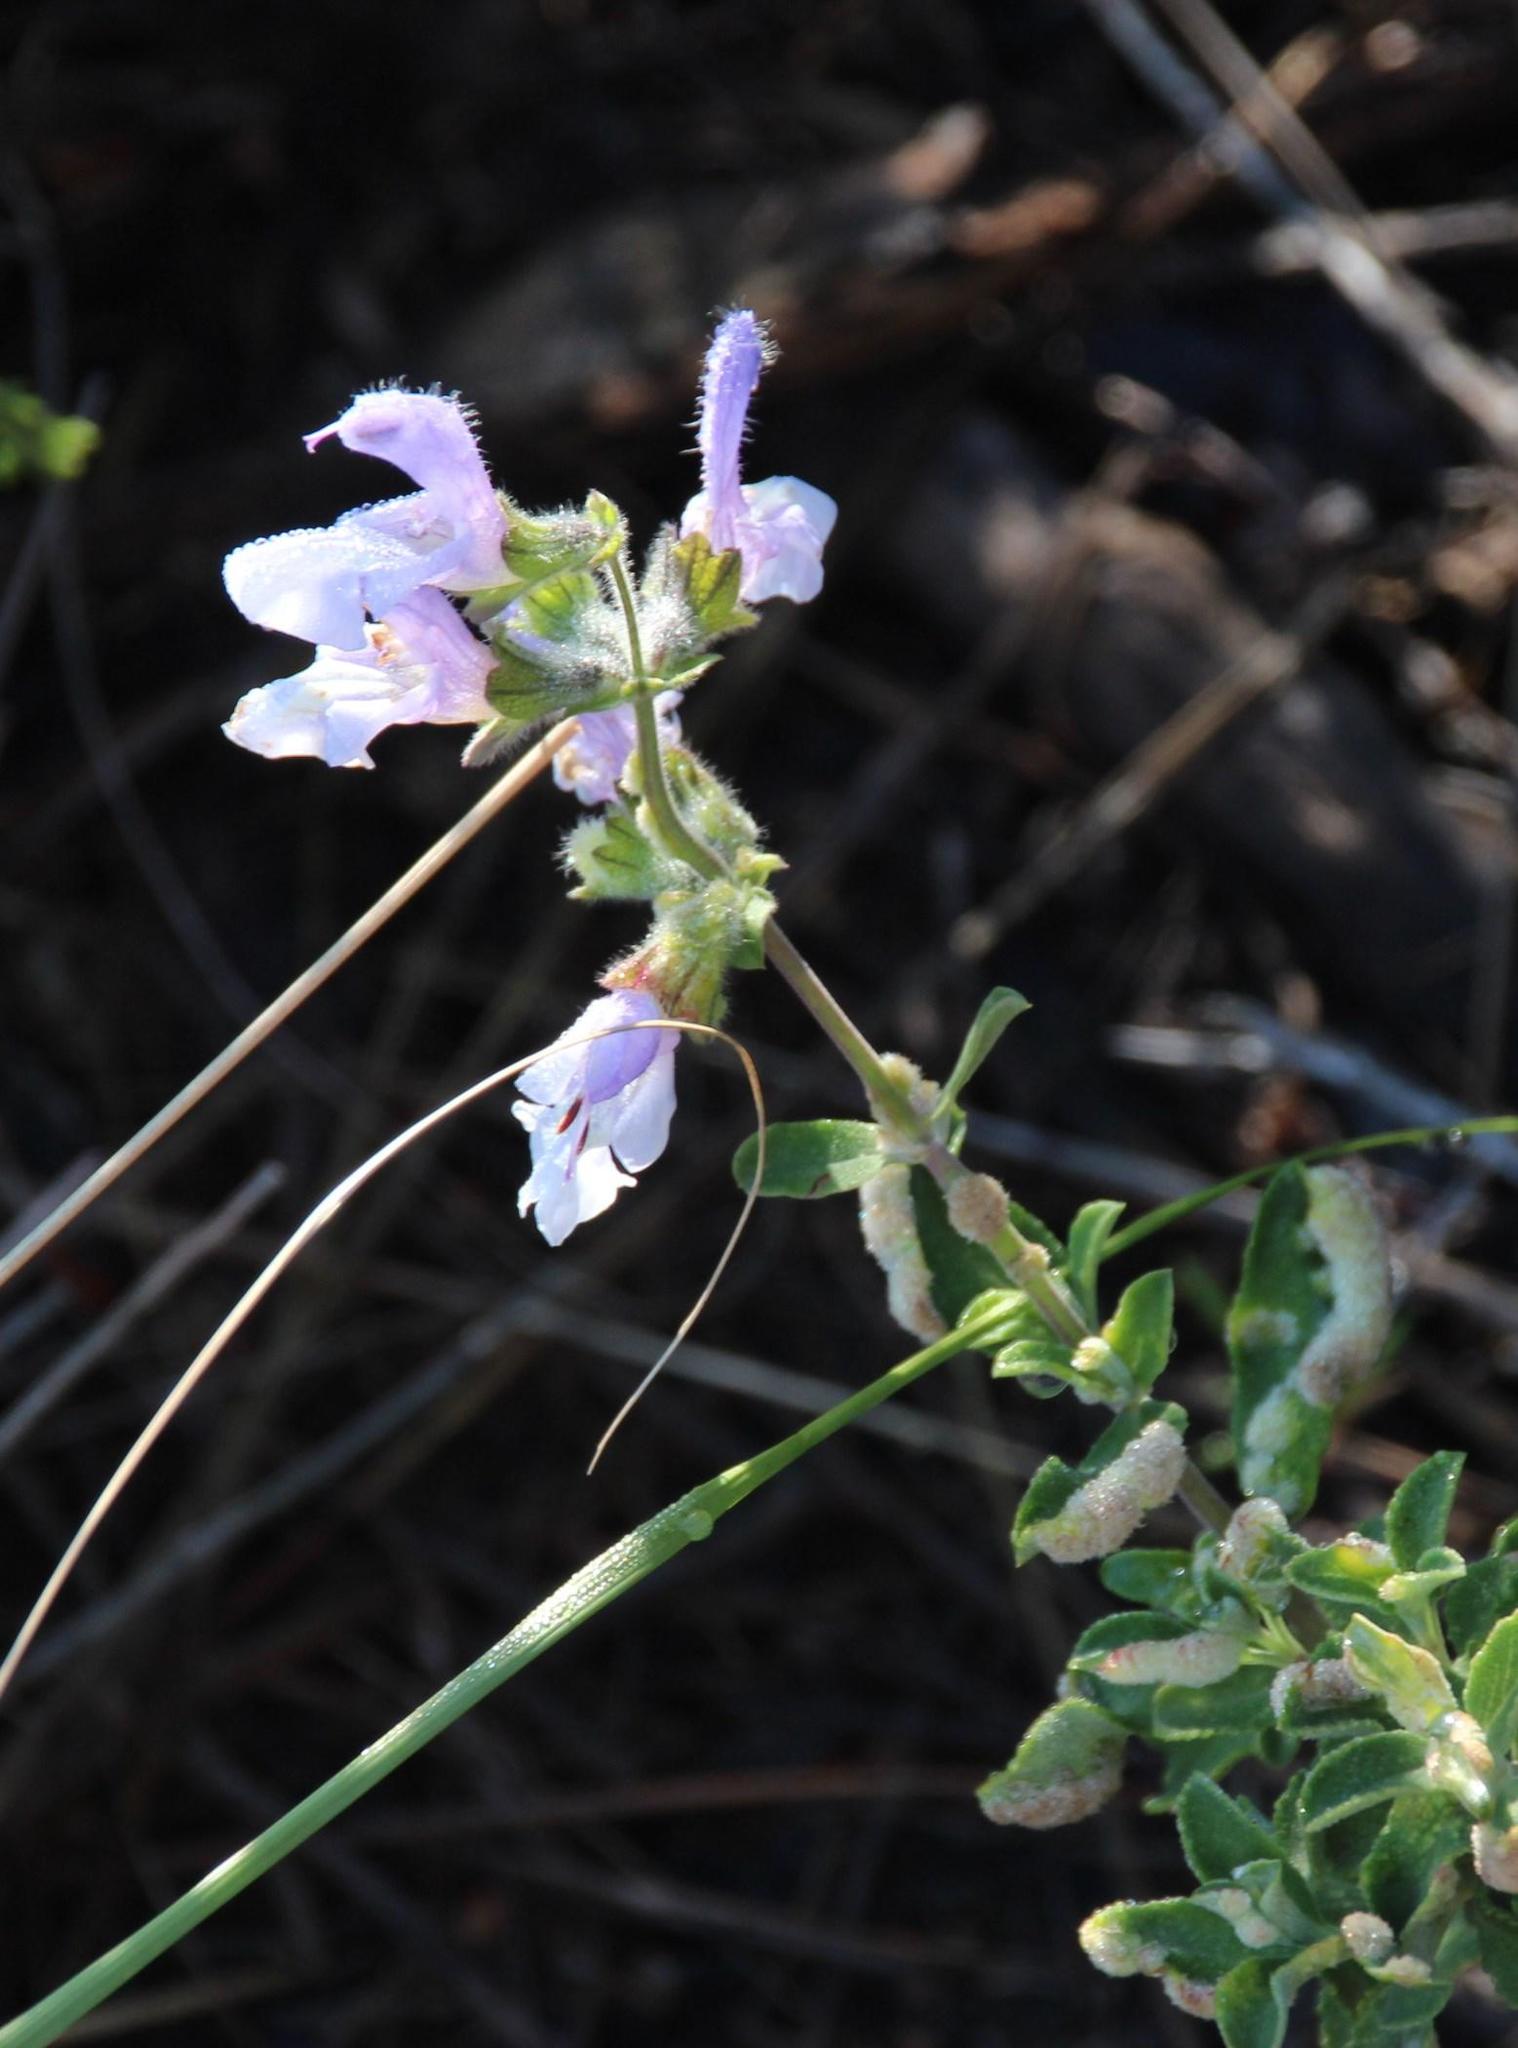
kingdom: Plantae
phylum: Tracheophyta
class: Magnoliopsida
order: Lamiales
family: Lamiaceae
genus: Salvia
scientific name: Salvia africana
